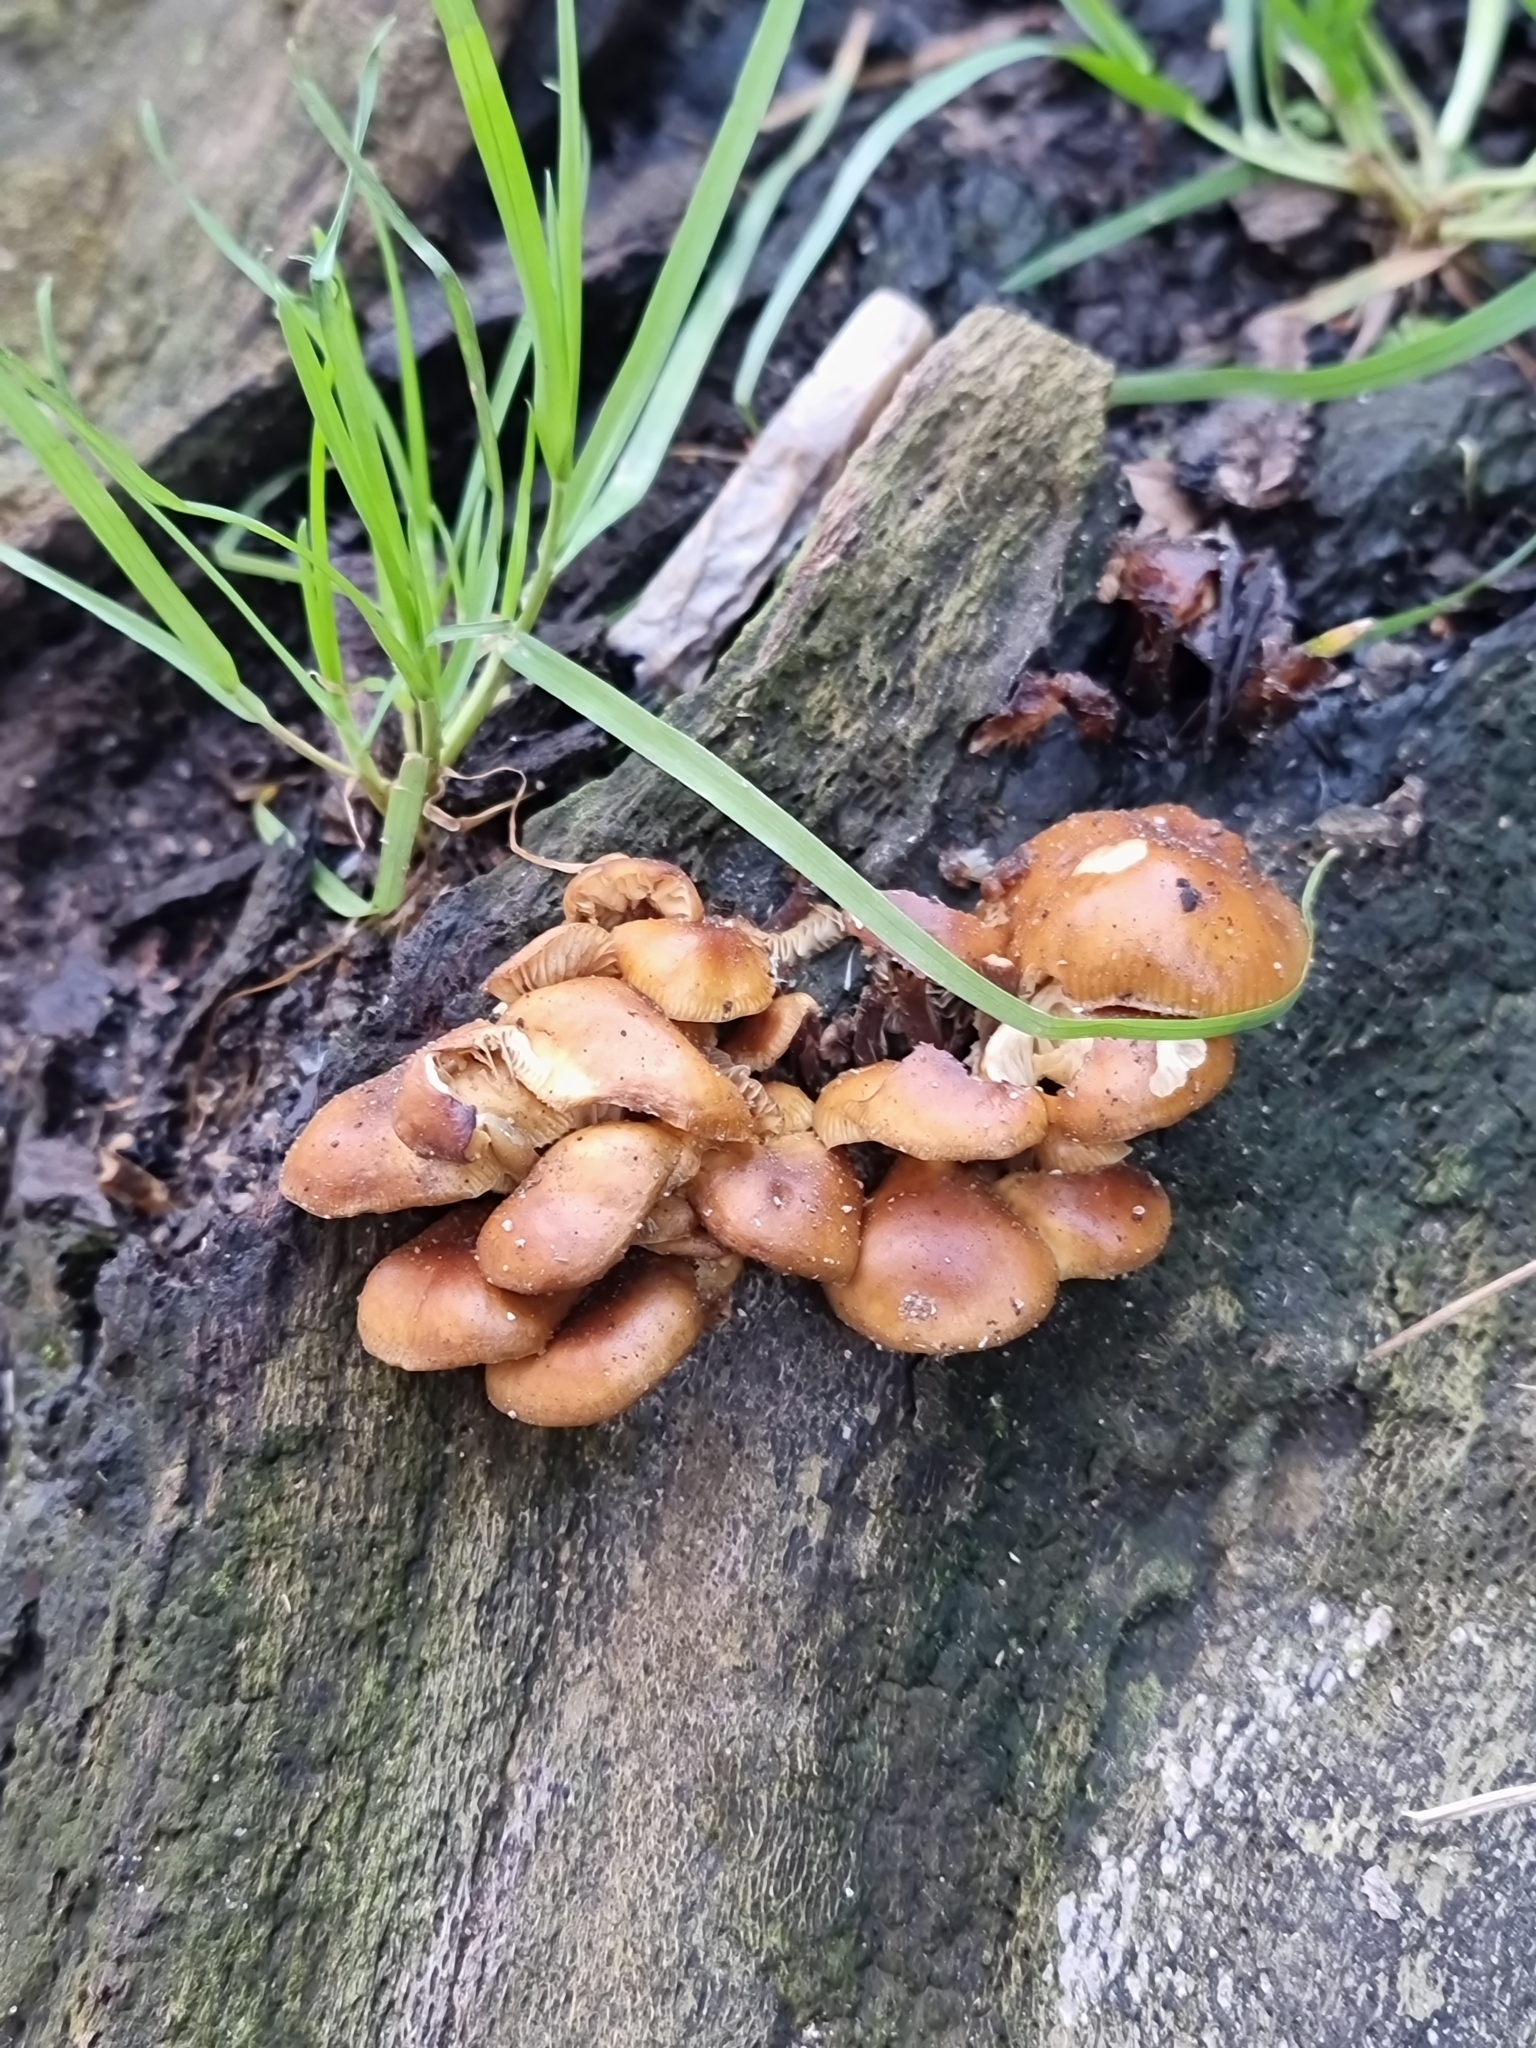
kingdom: Fungi
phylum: Basidiomycota
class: Agaricomycetes
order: Agaricales
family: Physalacriaceae
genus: Flammulina
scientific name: Flammulina
